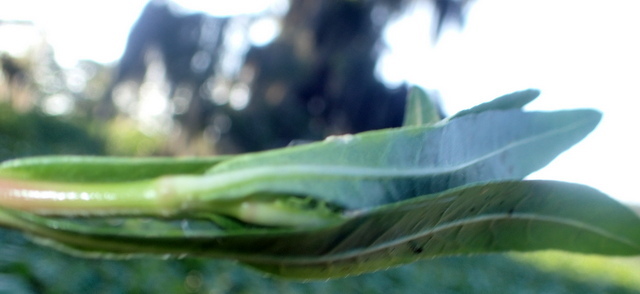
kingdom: Animalia
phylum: Arthropoda
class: Insecta
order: Lepidoptera
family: Crambidae
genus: Herpetogramma
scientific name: Herpetogramma bipunctalis
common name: Southern beet webworm
